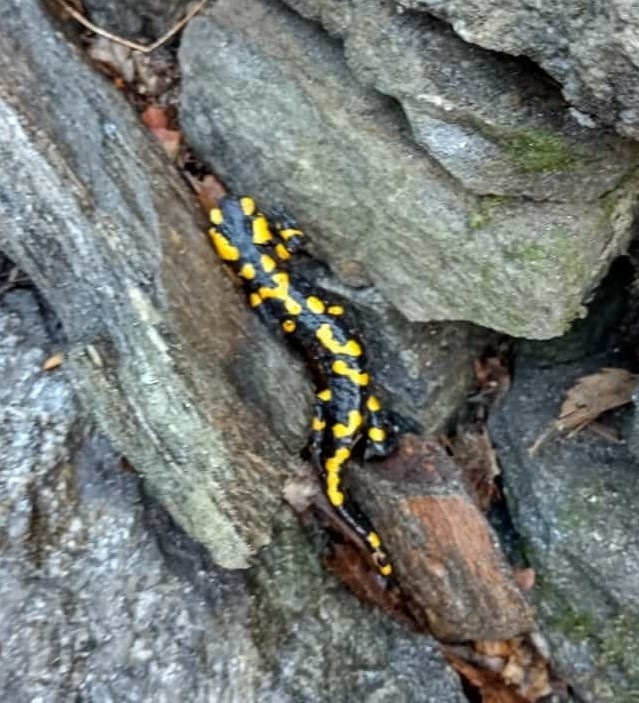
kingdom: Animalia
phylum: Chordata
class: Amphibia
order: Caudata
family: Salamandridae
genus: Salamandra
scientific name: Salamandra salamandra
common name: Fire salamander
